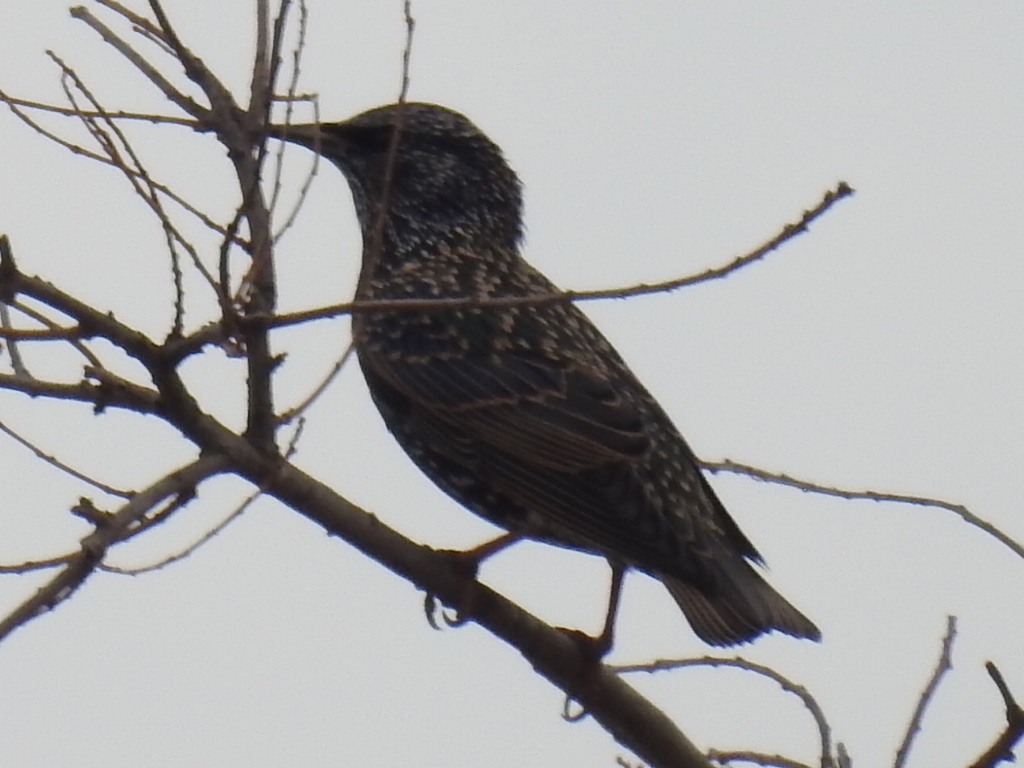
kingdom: Animalia
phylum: Chordata
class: Aves
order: Passeriformes
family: Sturnidae
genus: Sturnus
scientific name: Sturnus vulgaris
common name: Common starling
